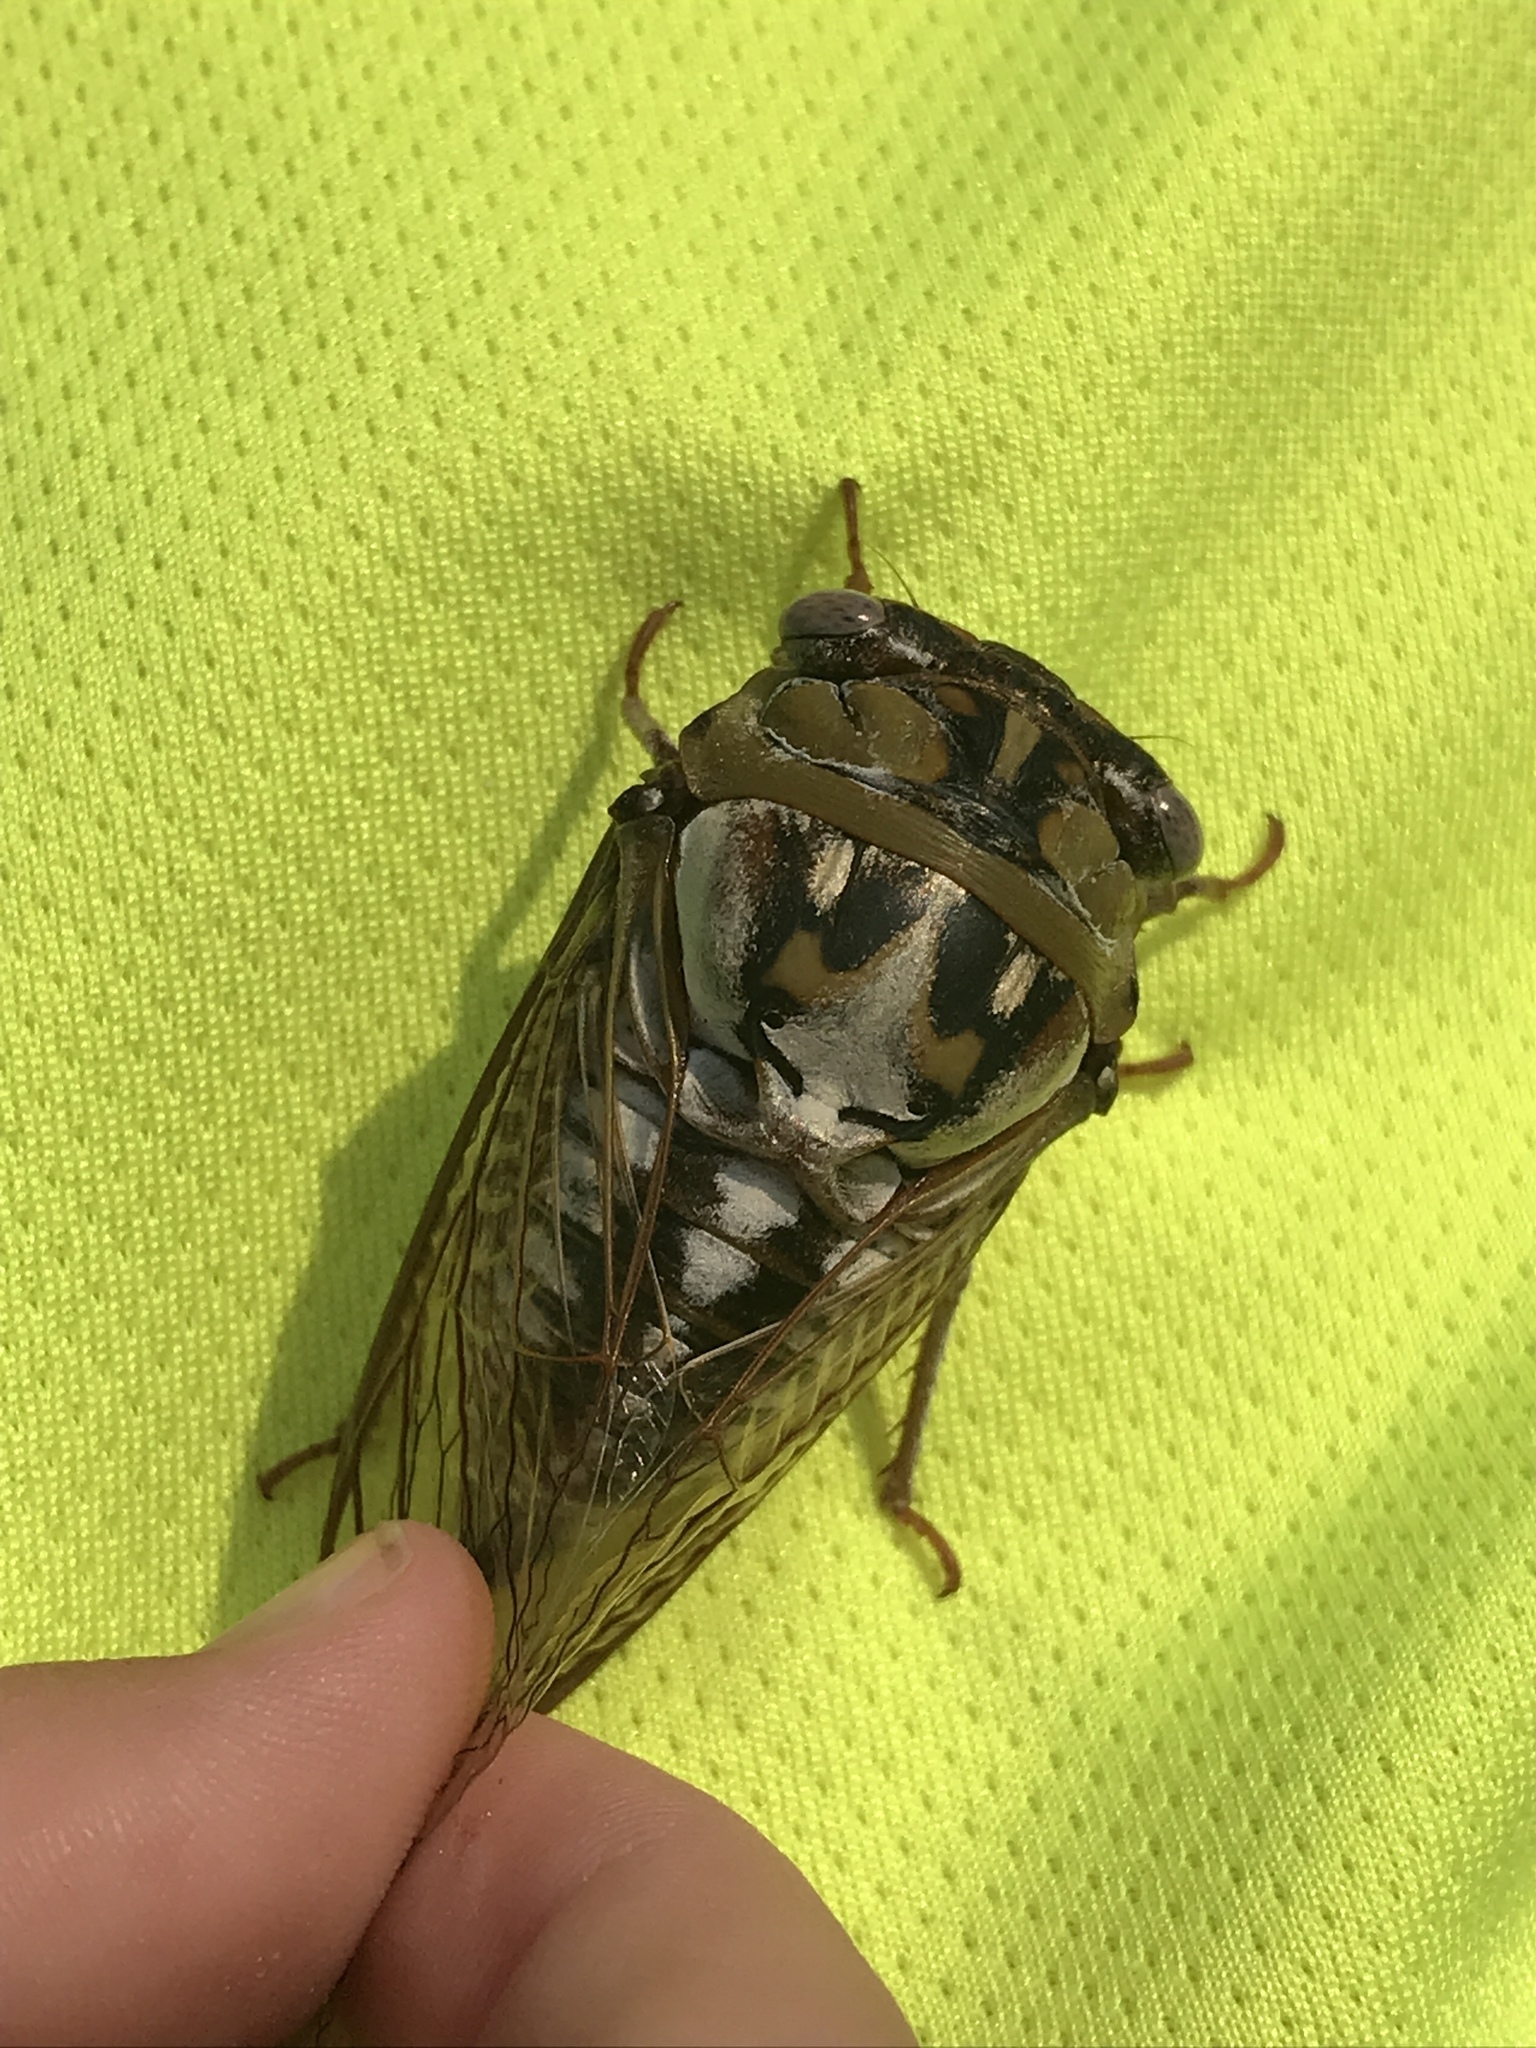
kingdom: Animalia
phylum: Arthropoda
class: Insecta
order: Hemiptera
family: Cicadidae
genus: Megatibicen
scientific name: Megatibicen dealbatus
